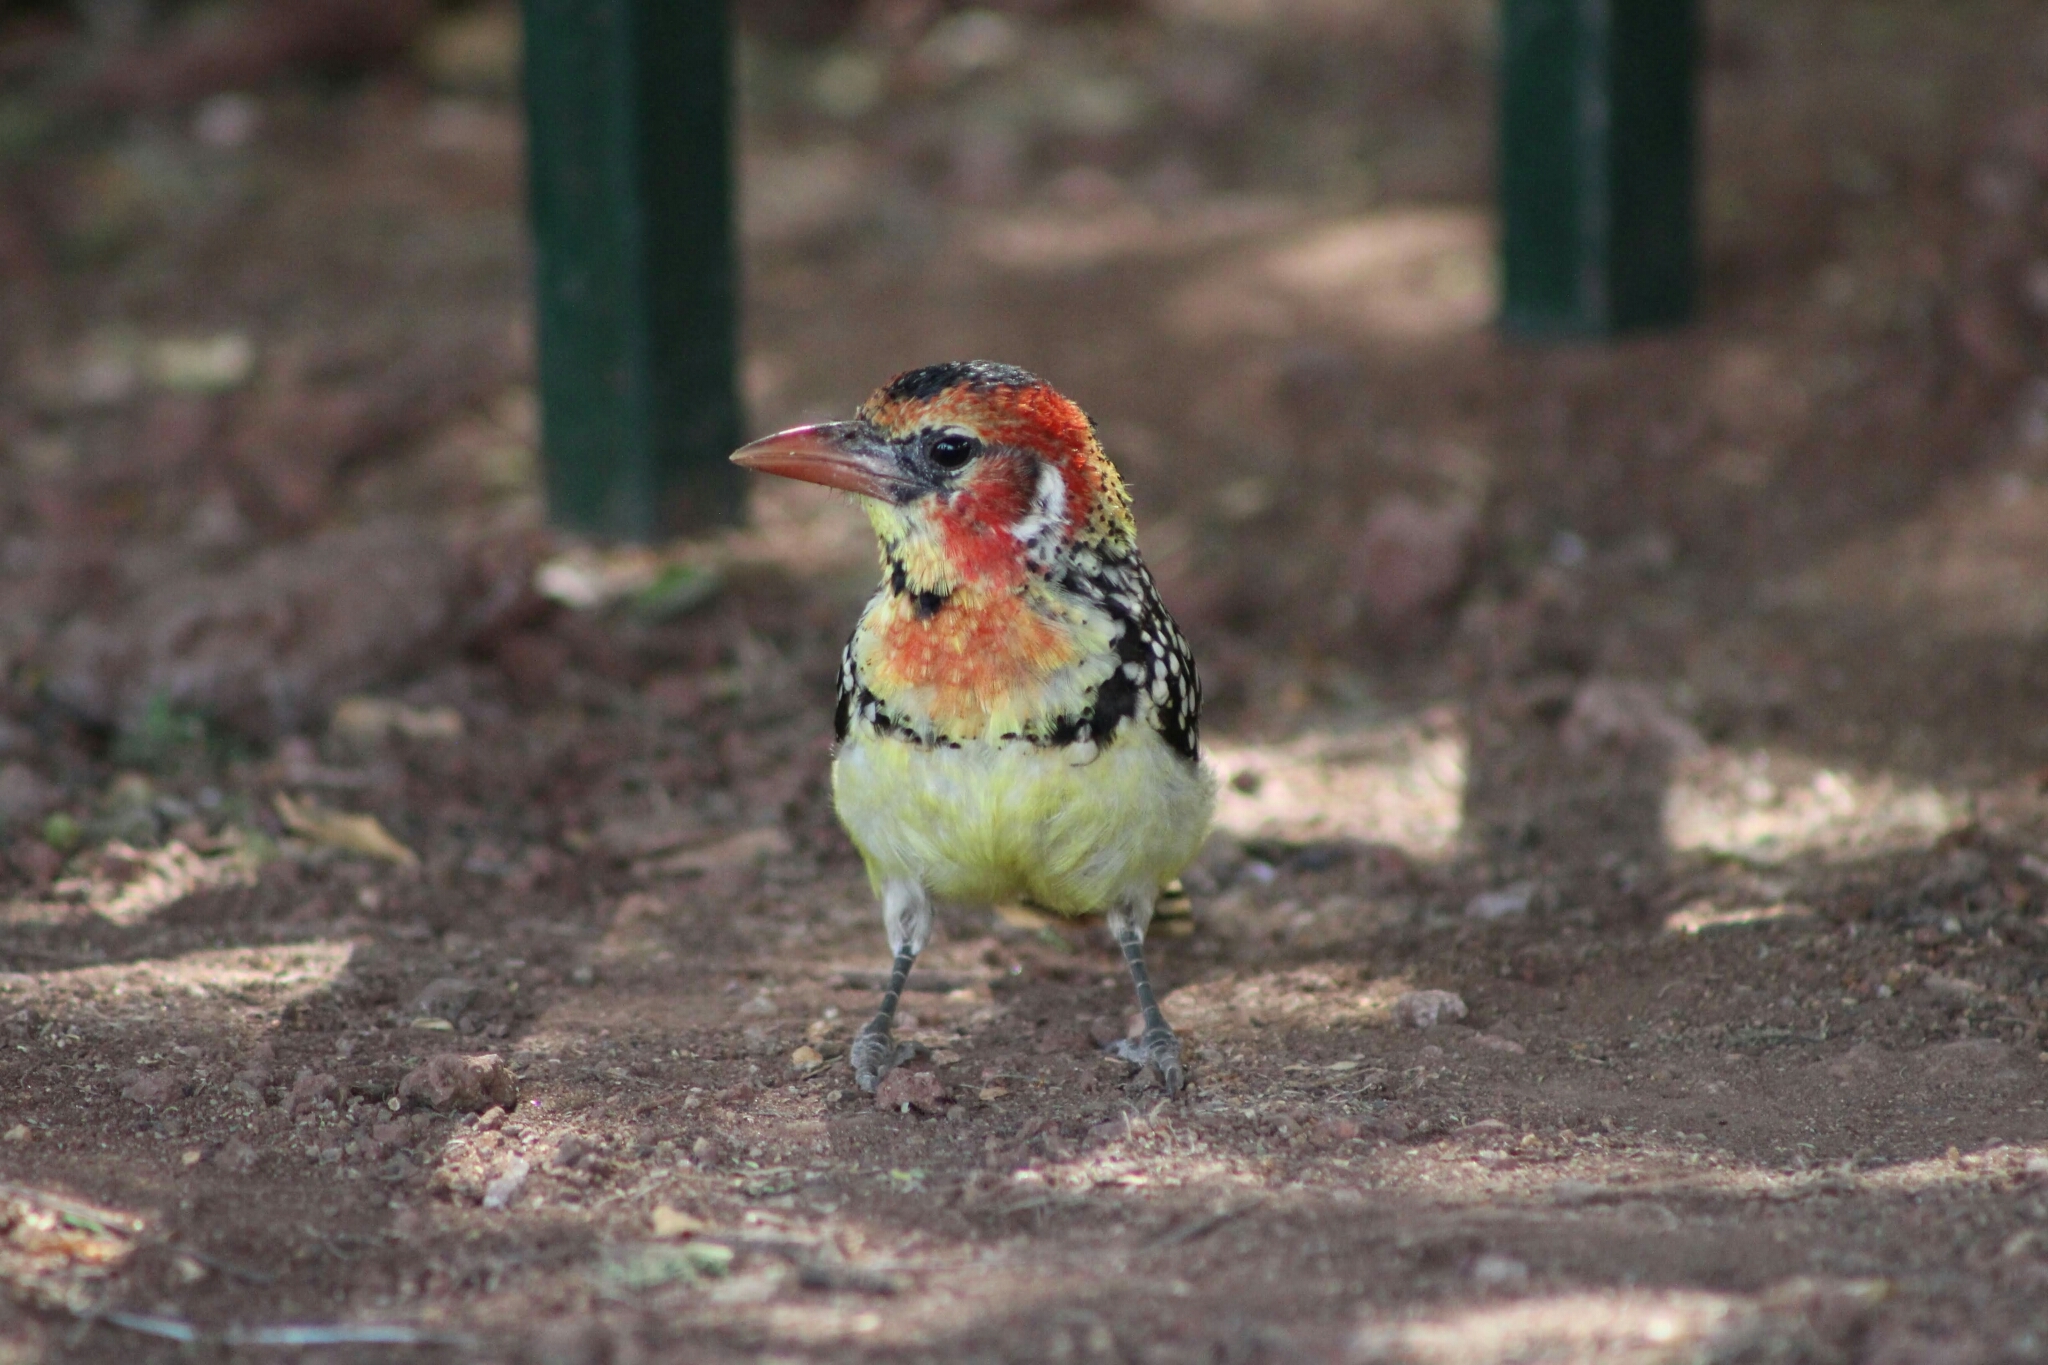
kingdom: Animalia
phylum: Chordata
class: Aves
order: Piciformes
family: Lybiidae
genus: Trachyphonus
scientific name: Trachyphonus erythrocephalus
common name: Red-and-yellow barbet
